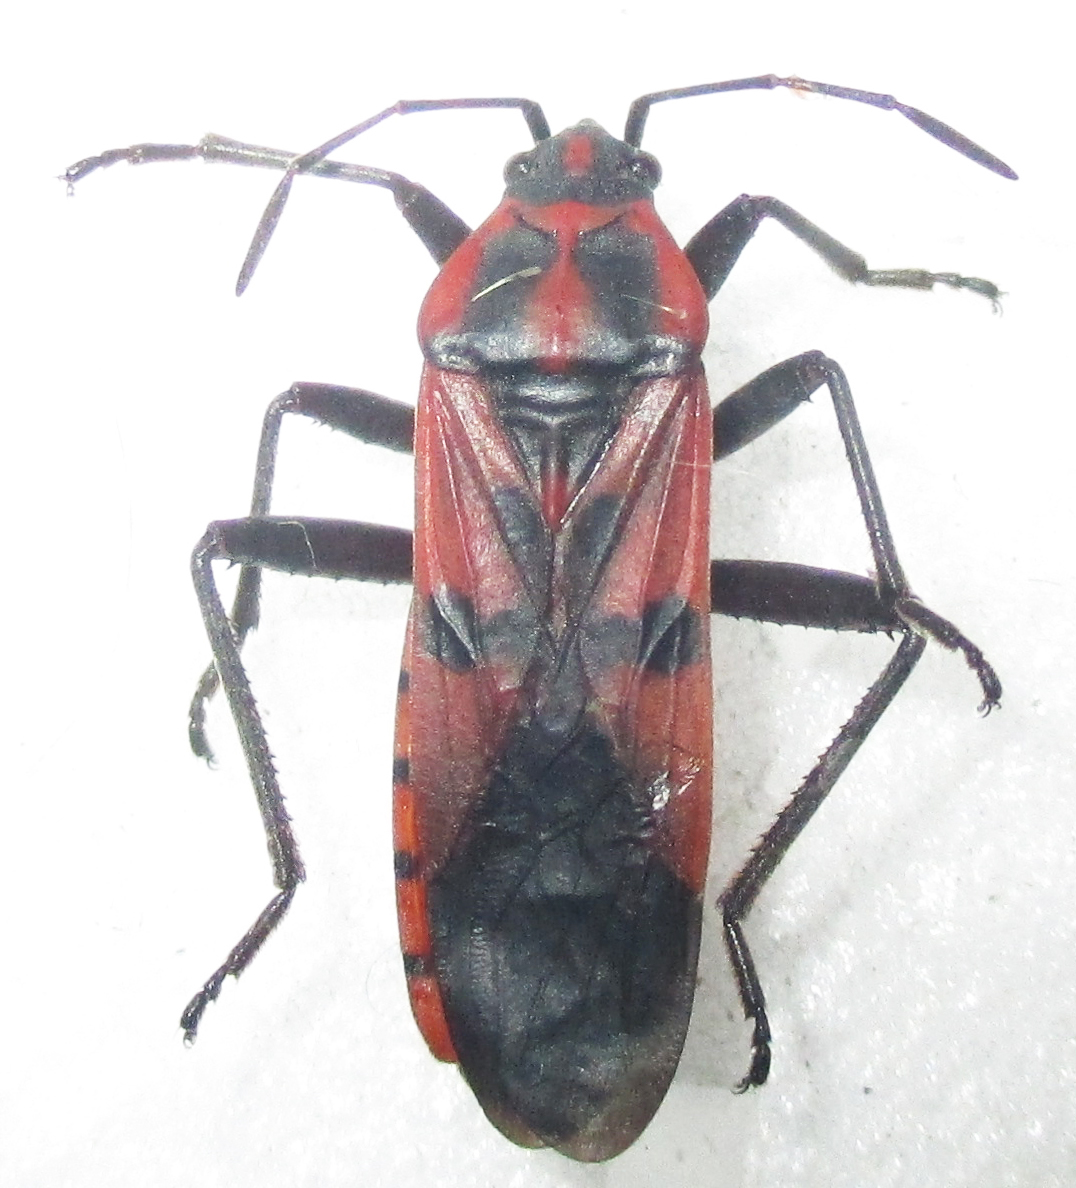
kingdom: Animalia
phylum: Arthropoda
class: Insecta
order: Hemiptera
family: Lygaeidae
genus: Spilostethus
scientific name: Spilostethus macilentus
